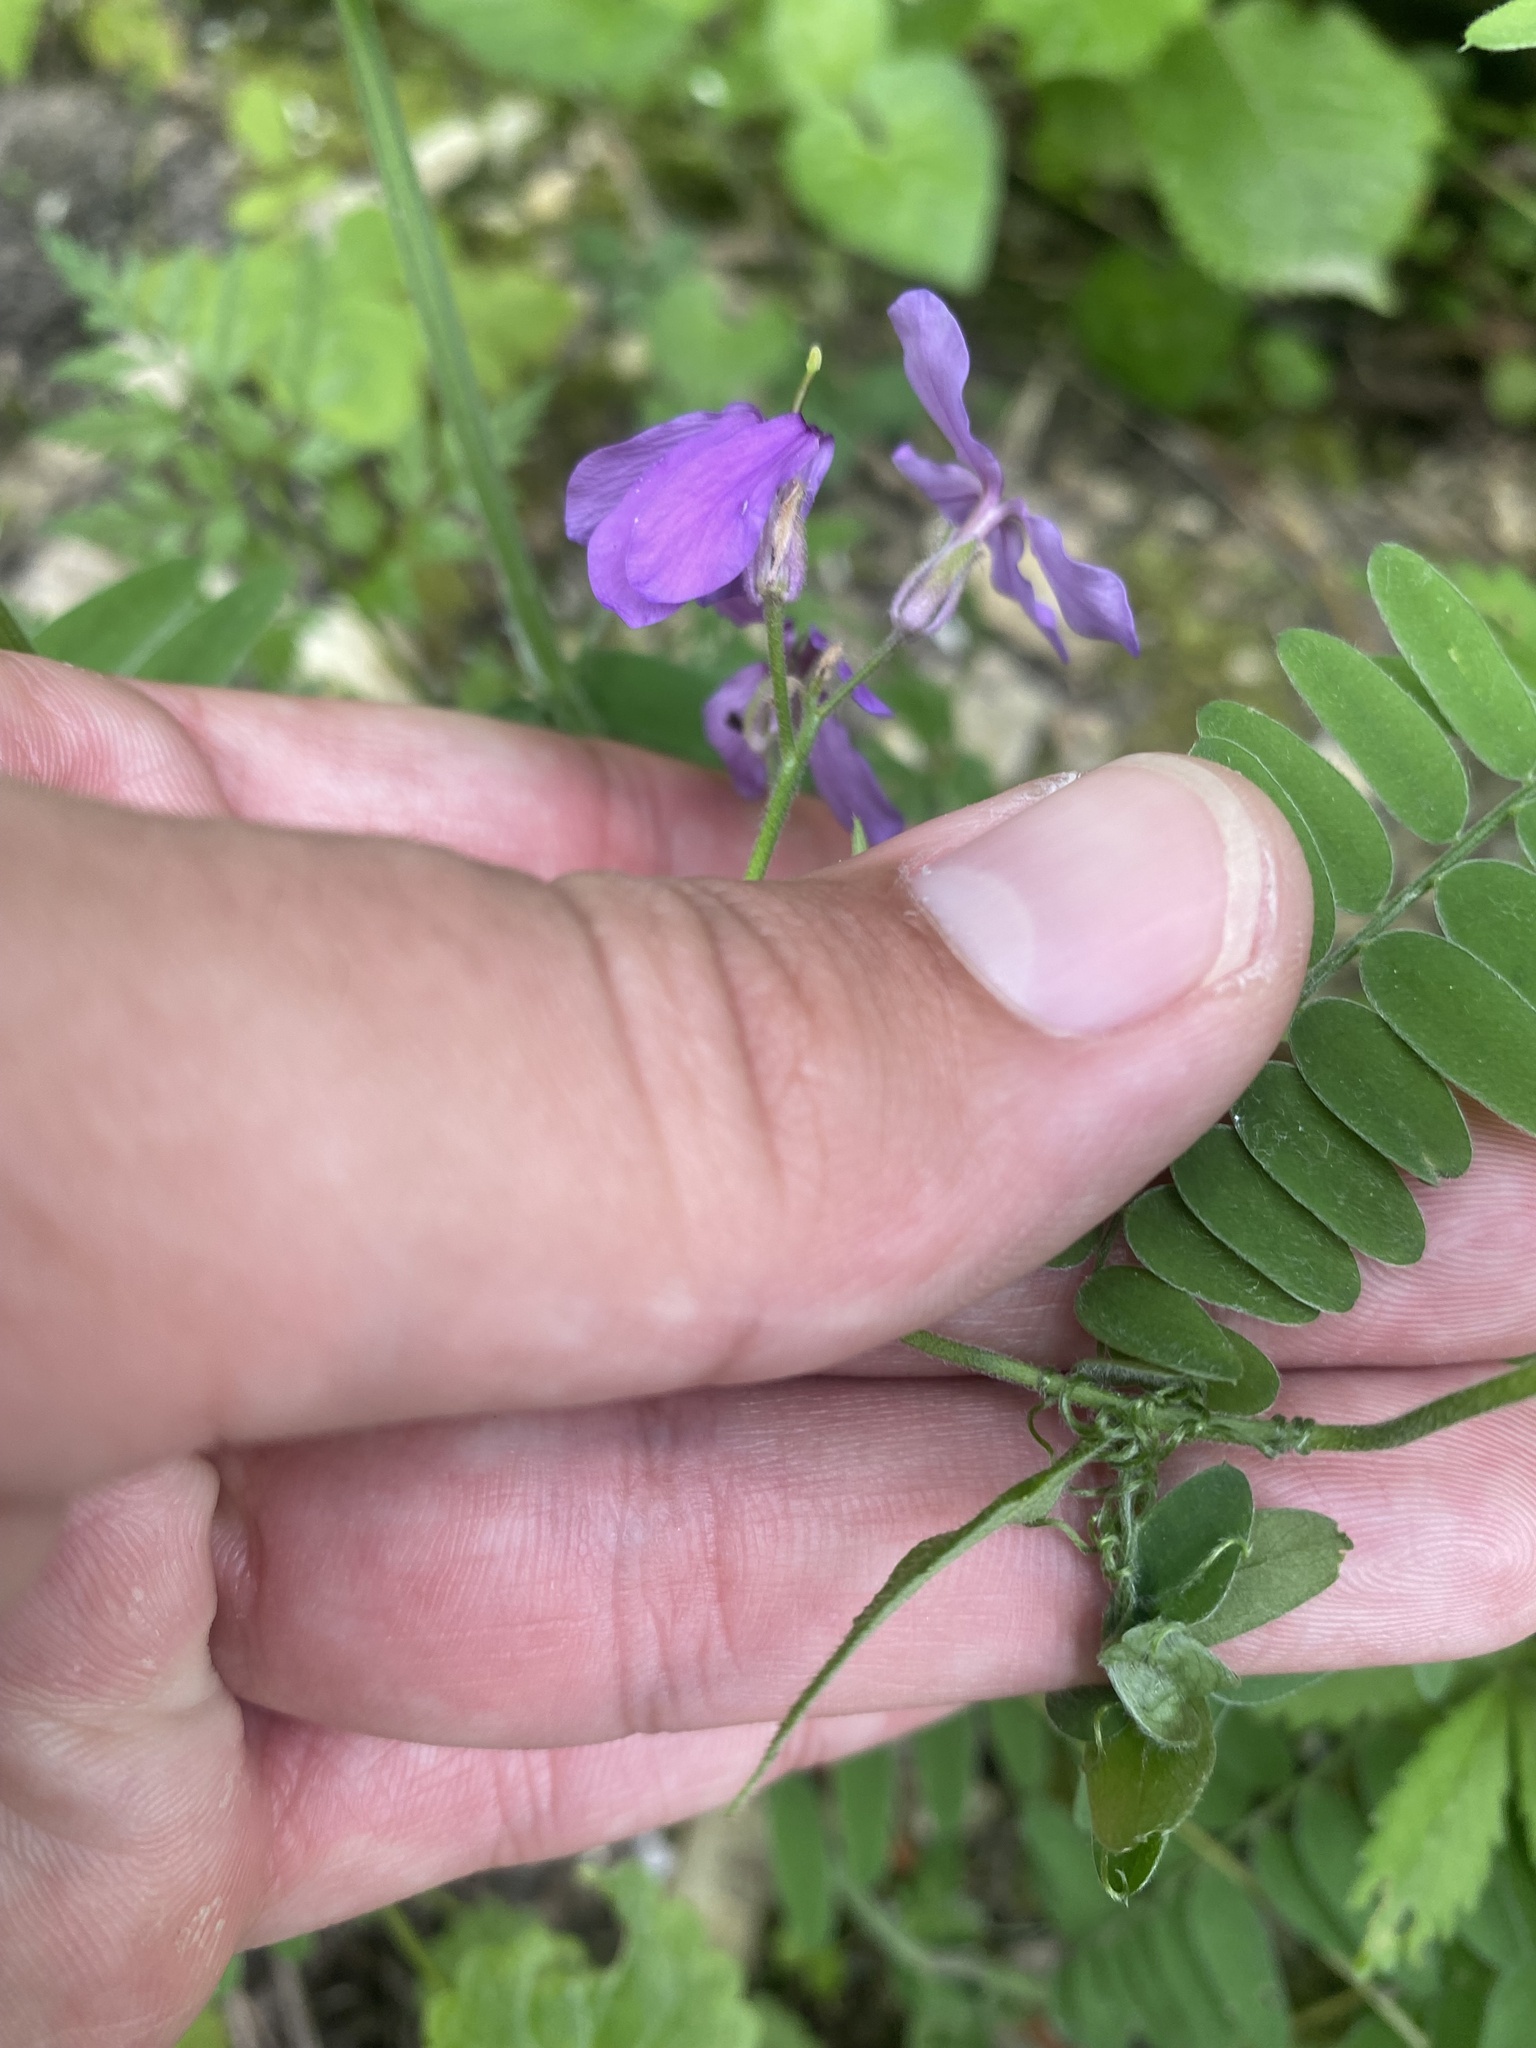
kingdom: Plantae
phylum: Tracheophyta
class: Magnoliopsida
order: Brassicales
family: Brassicaceae
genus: Hesperis
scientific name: Hesperis matronalis
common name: Dame's-violet
